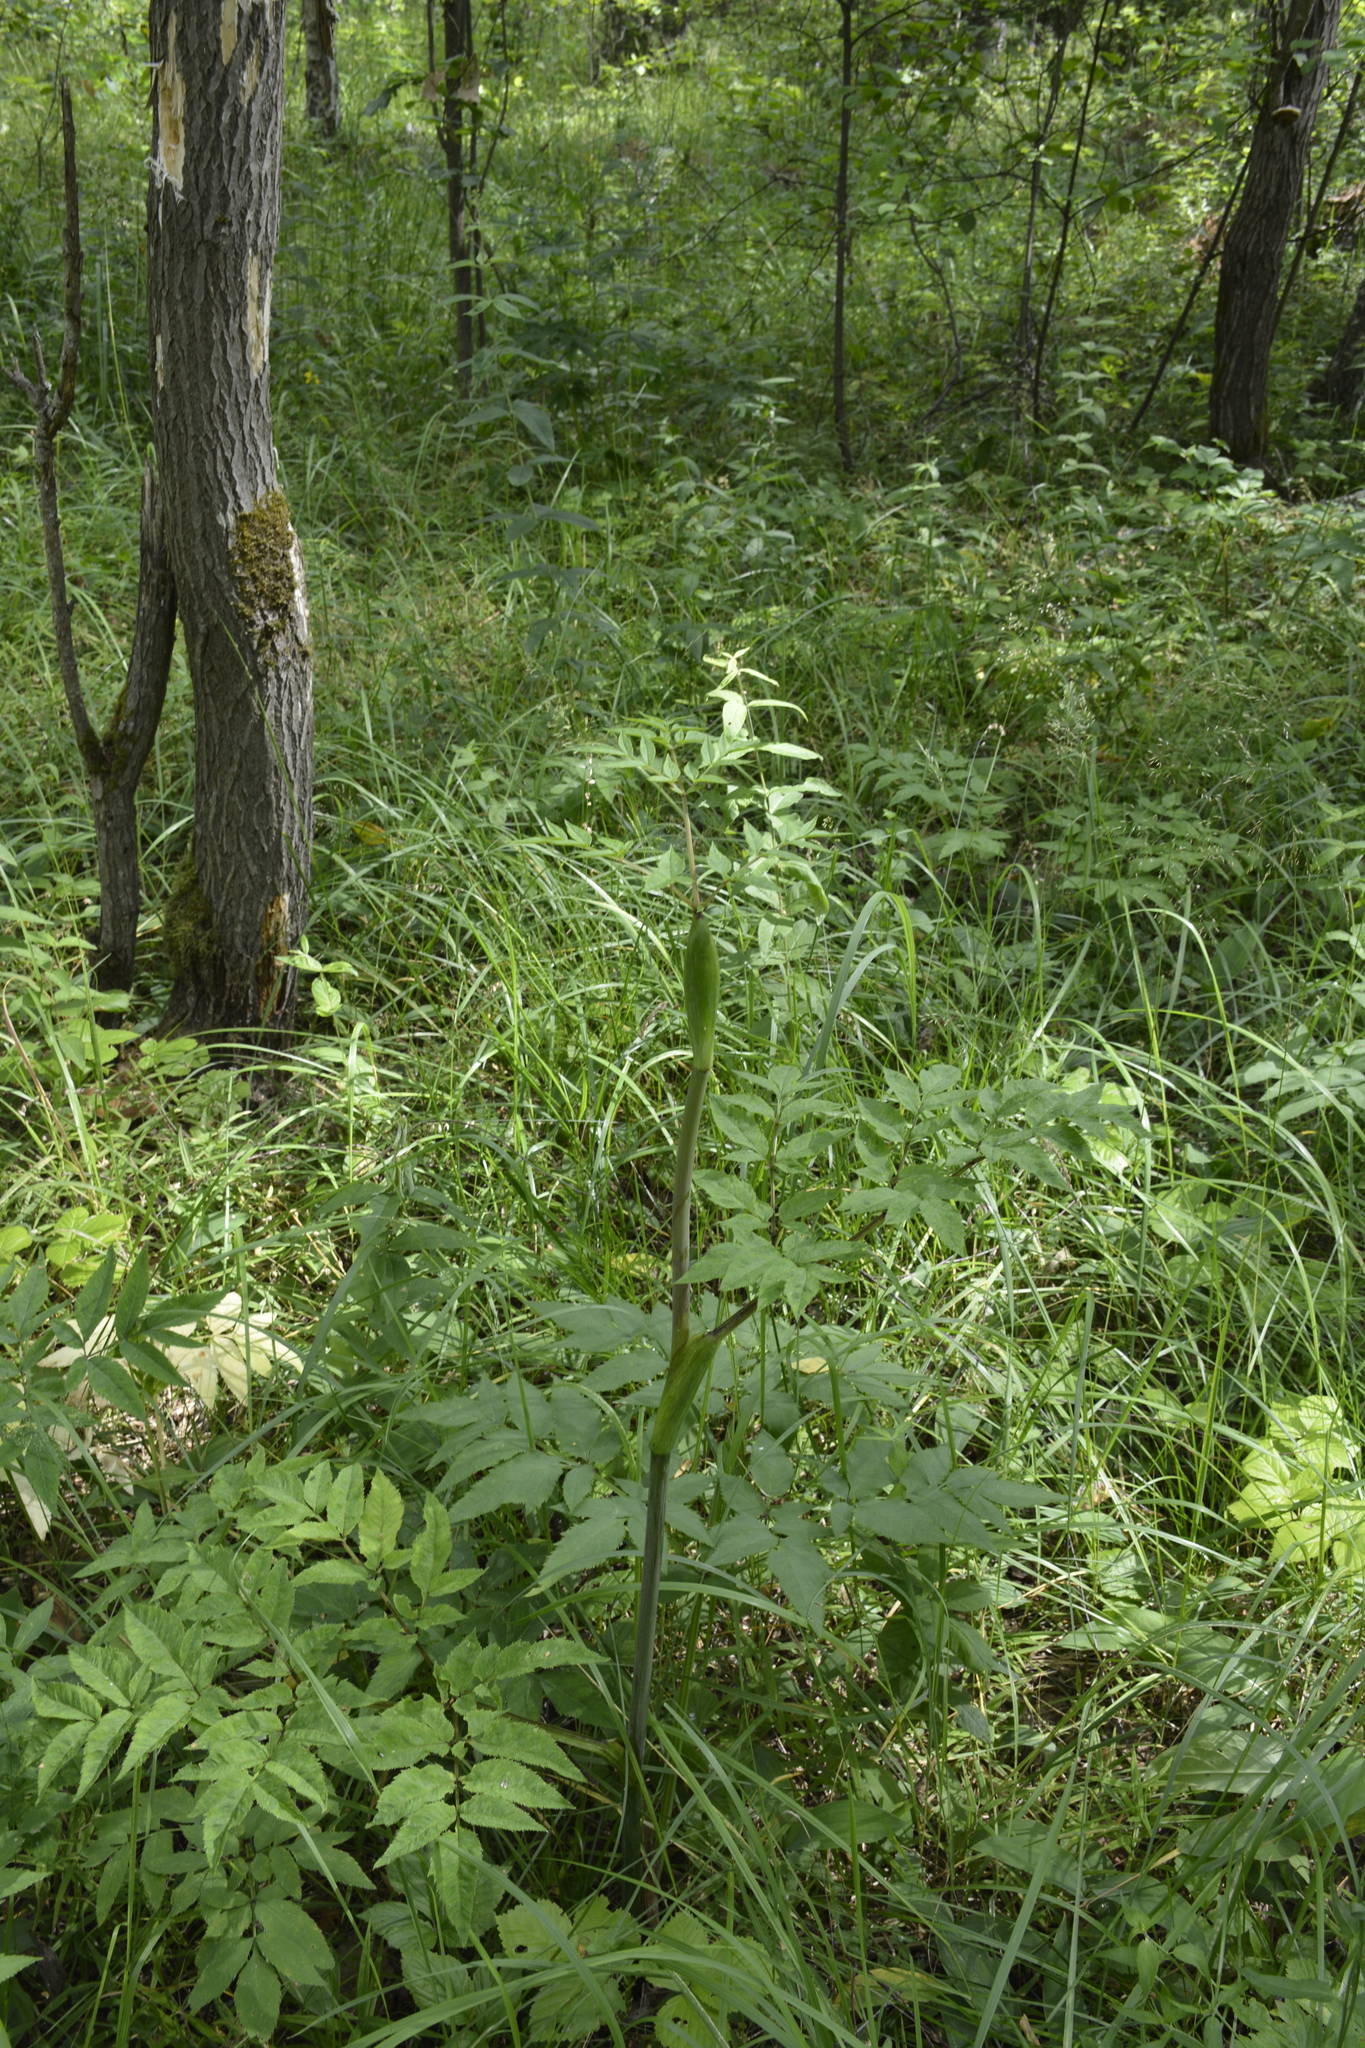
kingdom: Plantae
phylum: Tracheophyta
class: Magnoliopsida
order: Apiales
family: Apiaceae
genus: Angelica
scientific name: Angelica sylvestris
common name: Wild angelica
